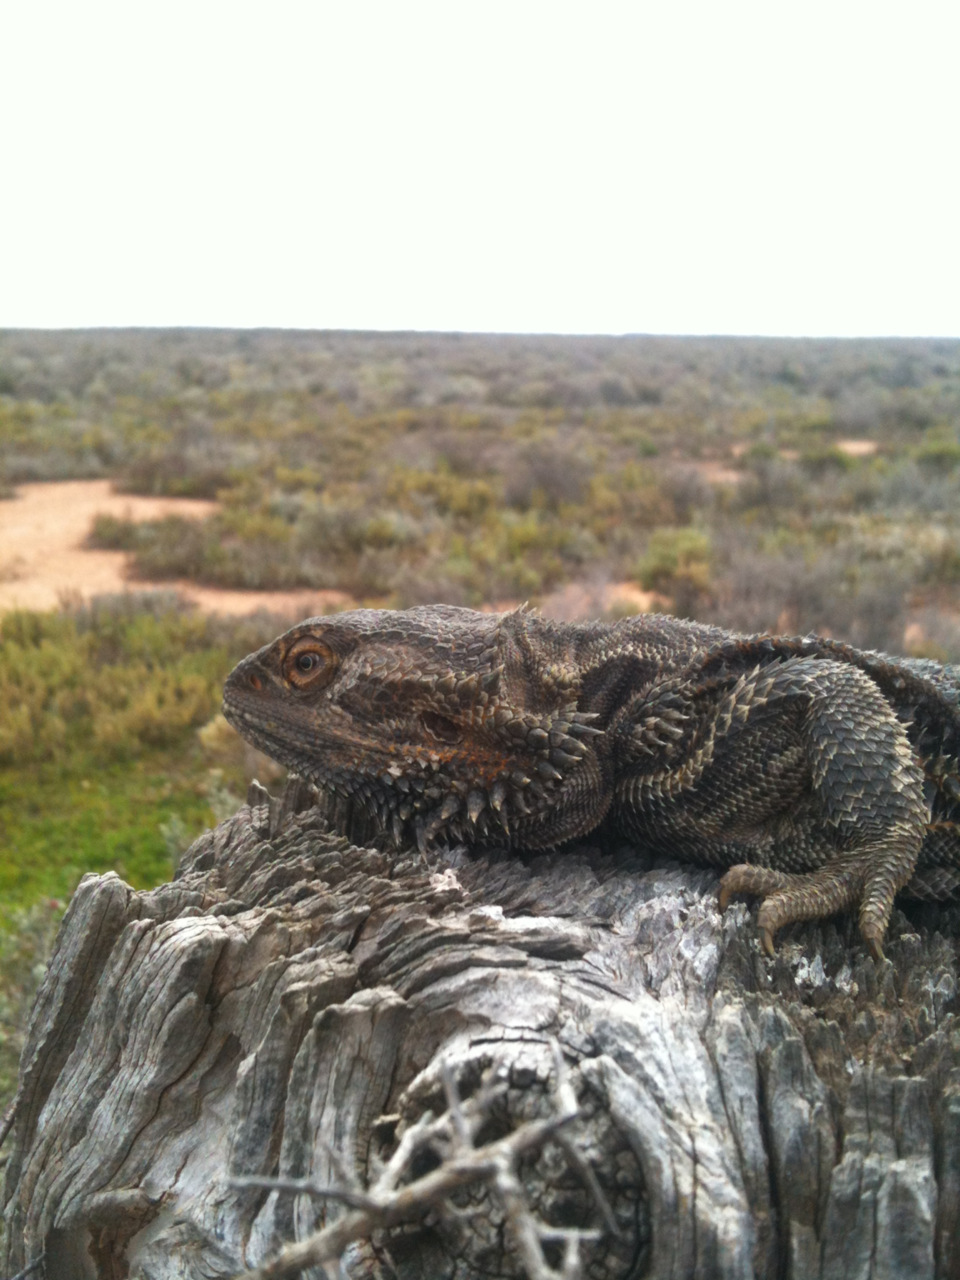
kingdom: Animalia
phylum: Chordata
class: Squamata
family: Agamidae
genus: Pogona
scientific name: Pogona vitticeps
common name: Central bearded dragon
